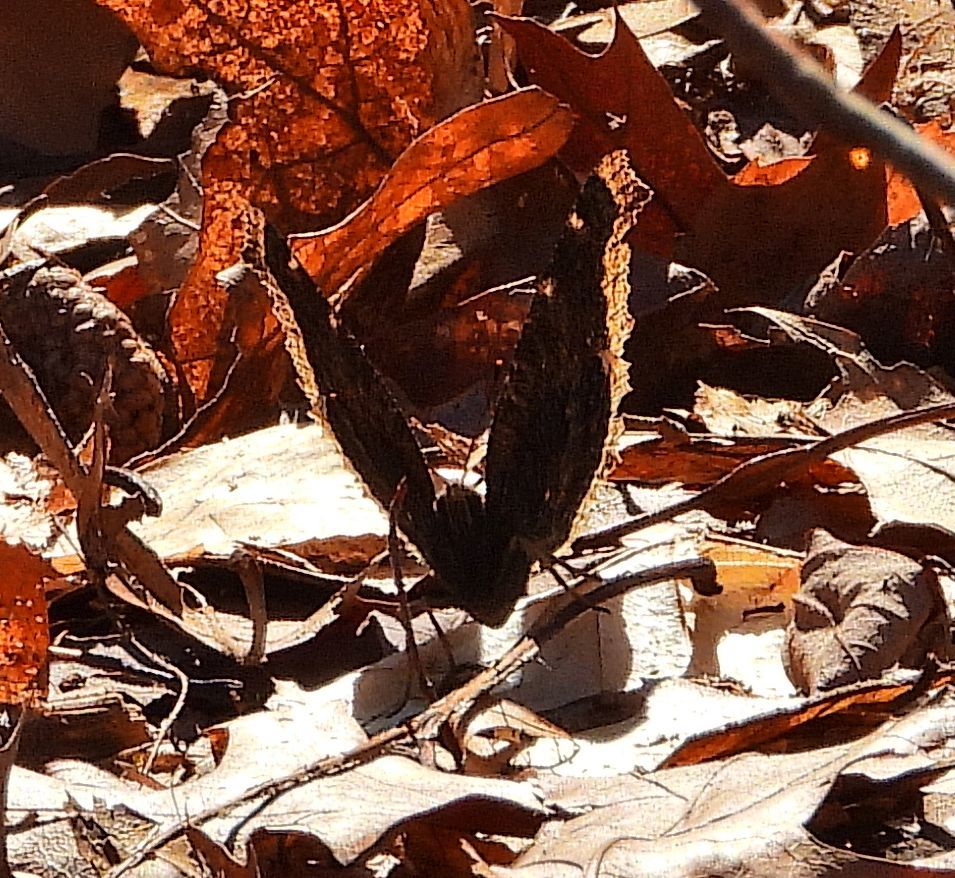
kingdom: Animalia
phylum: Arthropoda
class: Insecta
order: Lepidoptera
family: Nymphalidae
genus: Nymphalis
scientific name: Nymphalis antiopa
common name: Camberwell beauty
